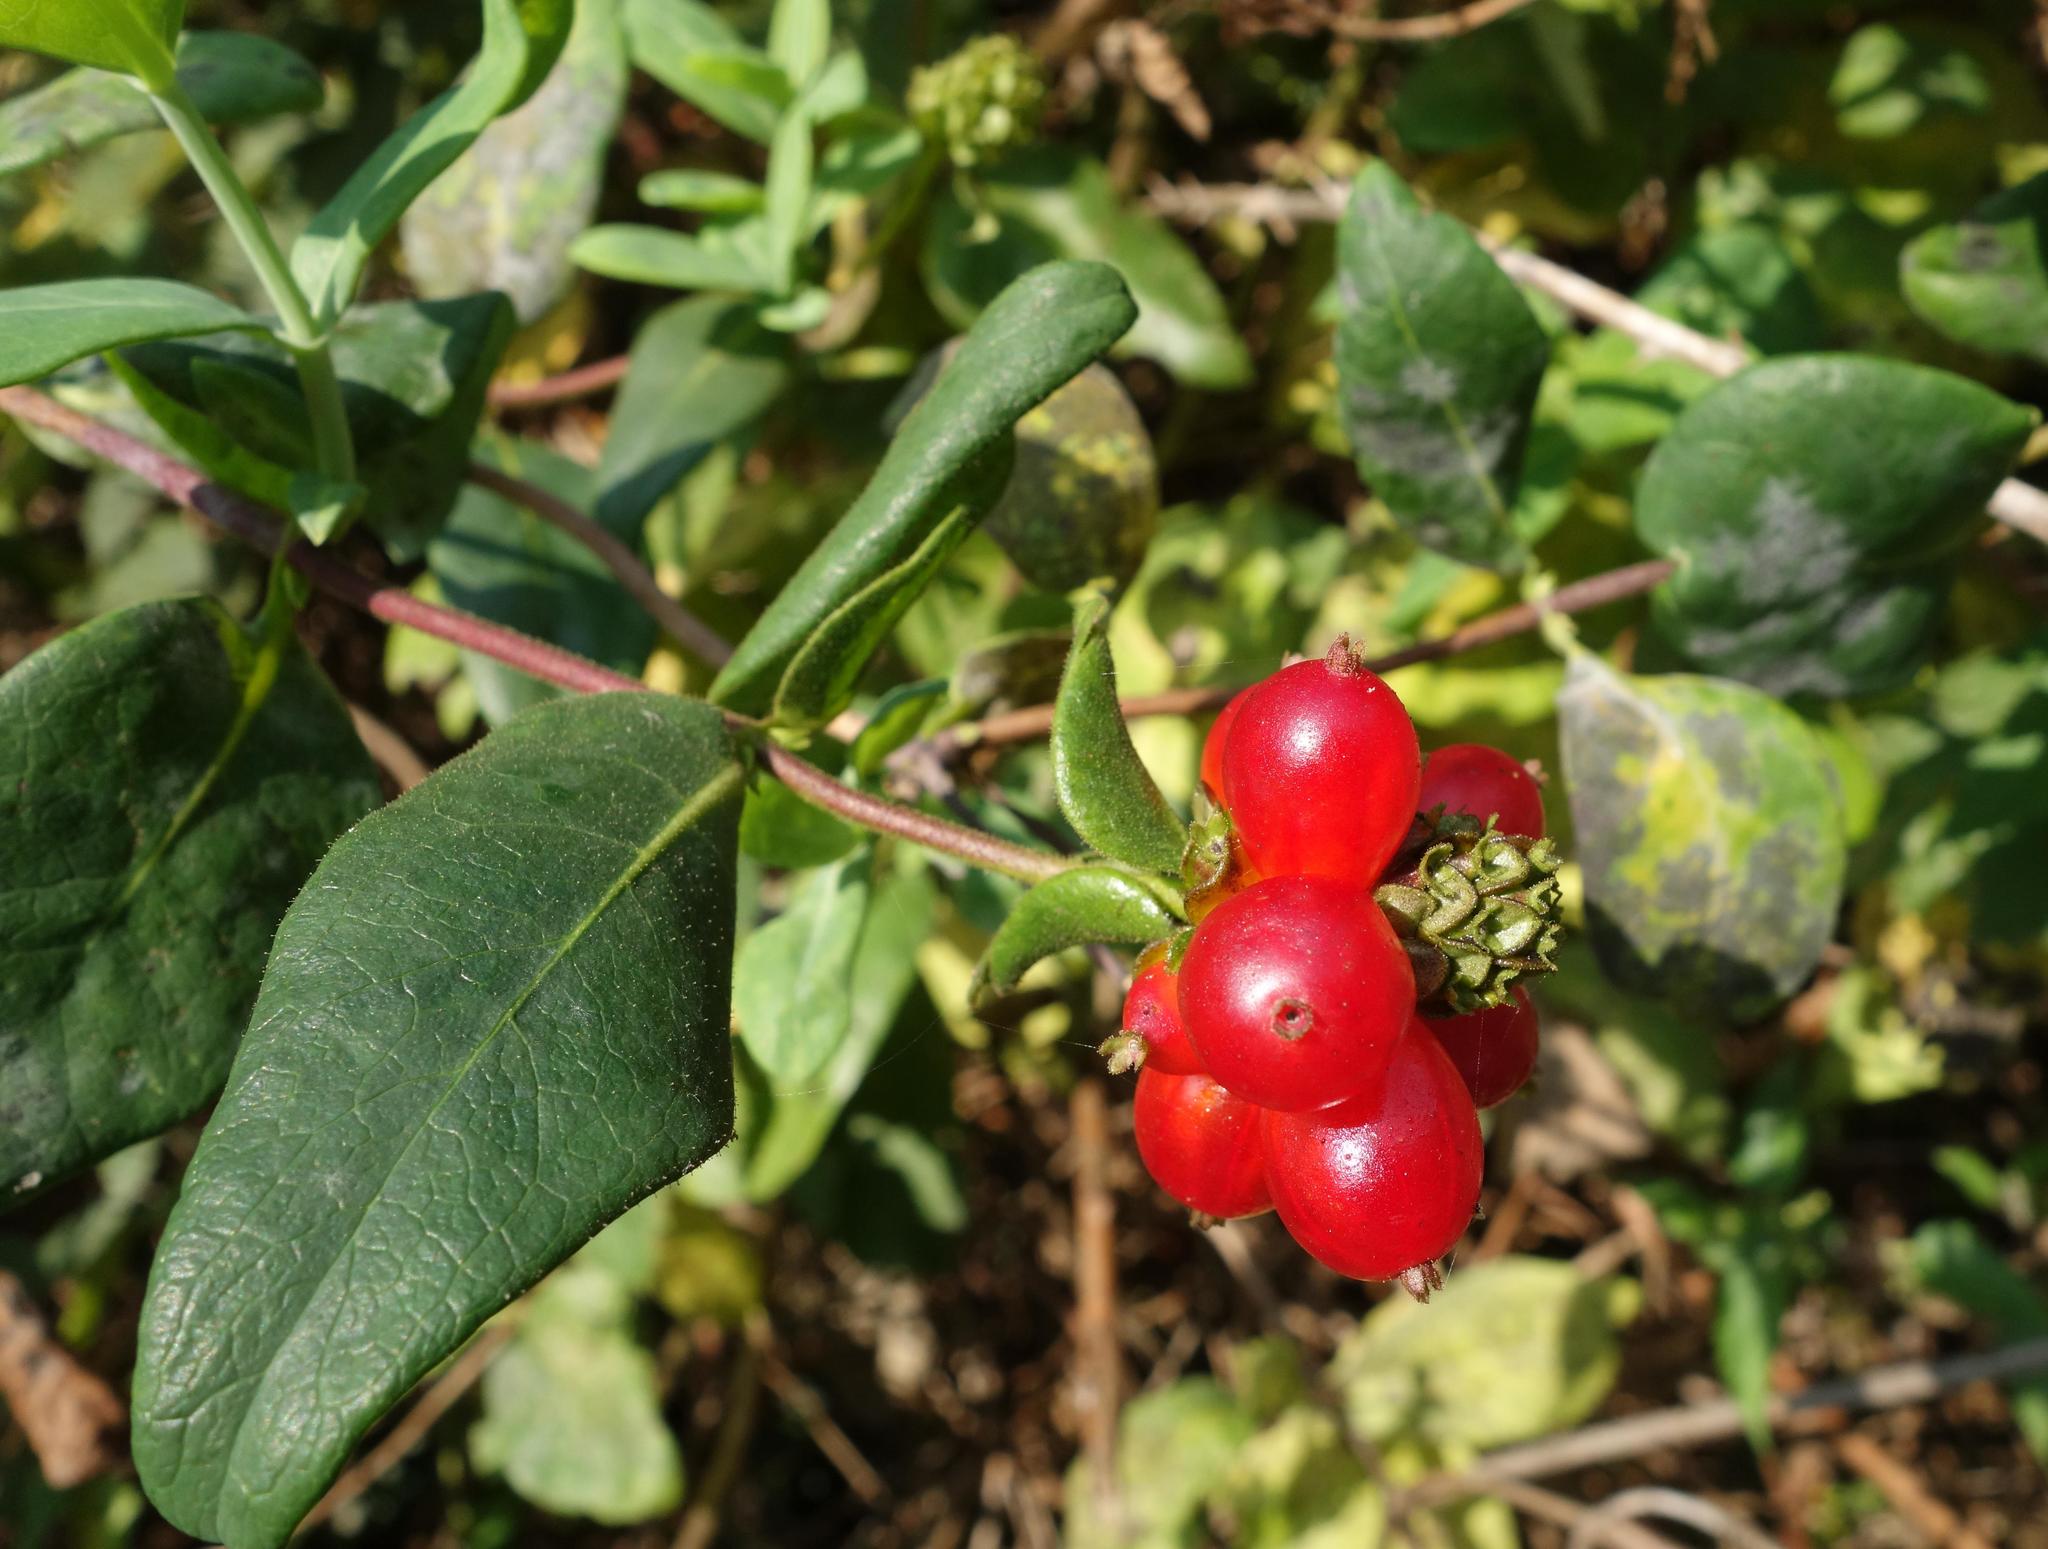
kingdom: Plantae
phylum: Tracheophyta
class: Magnoliopsida
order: Dipsacales
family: Caprifoliaceae
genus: Lonicera
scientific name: Lonicera periclymenum
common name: European honeysuckle
